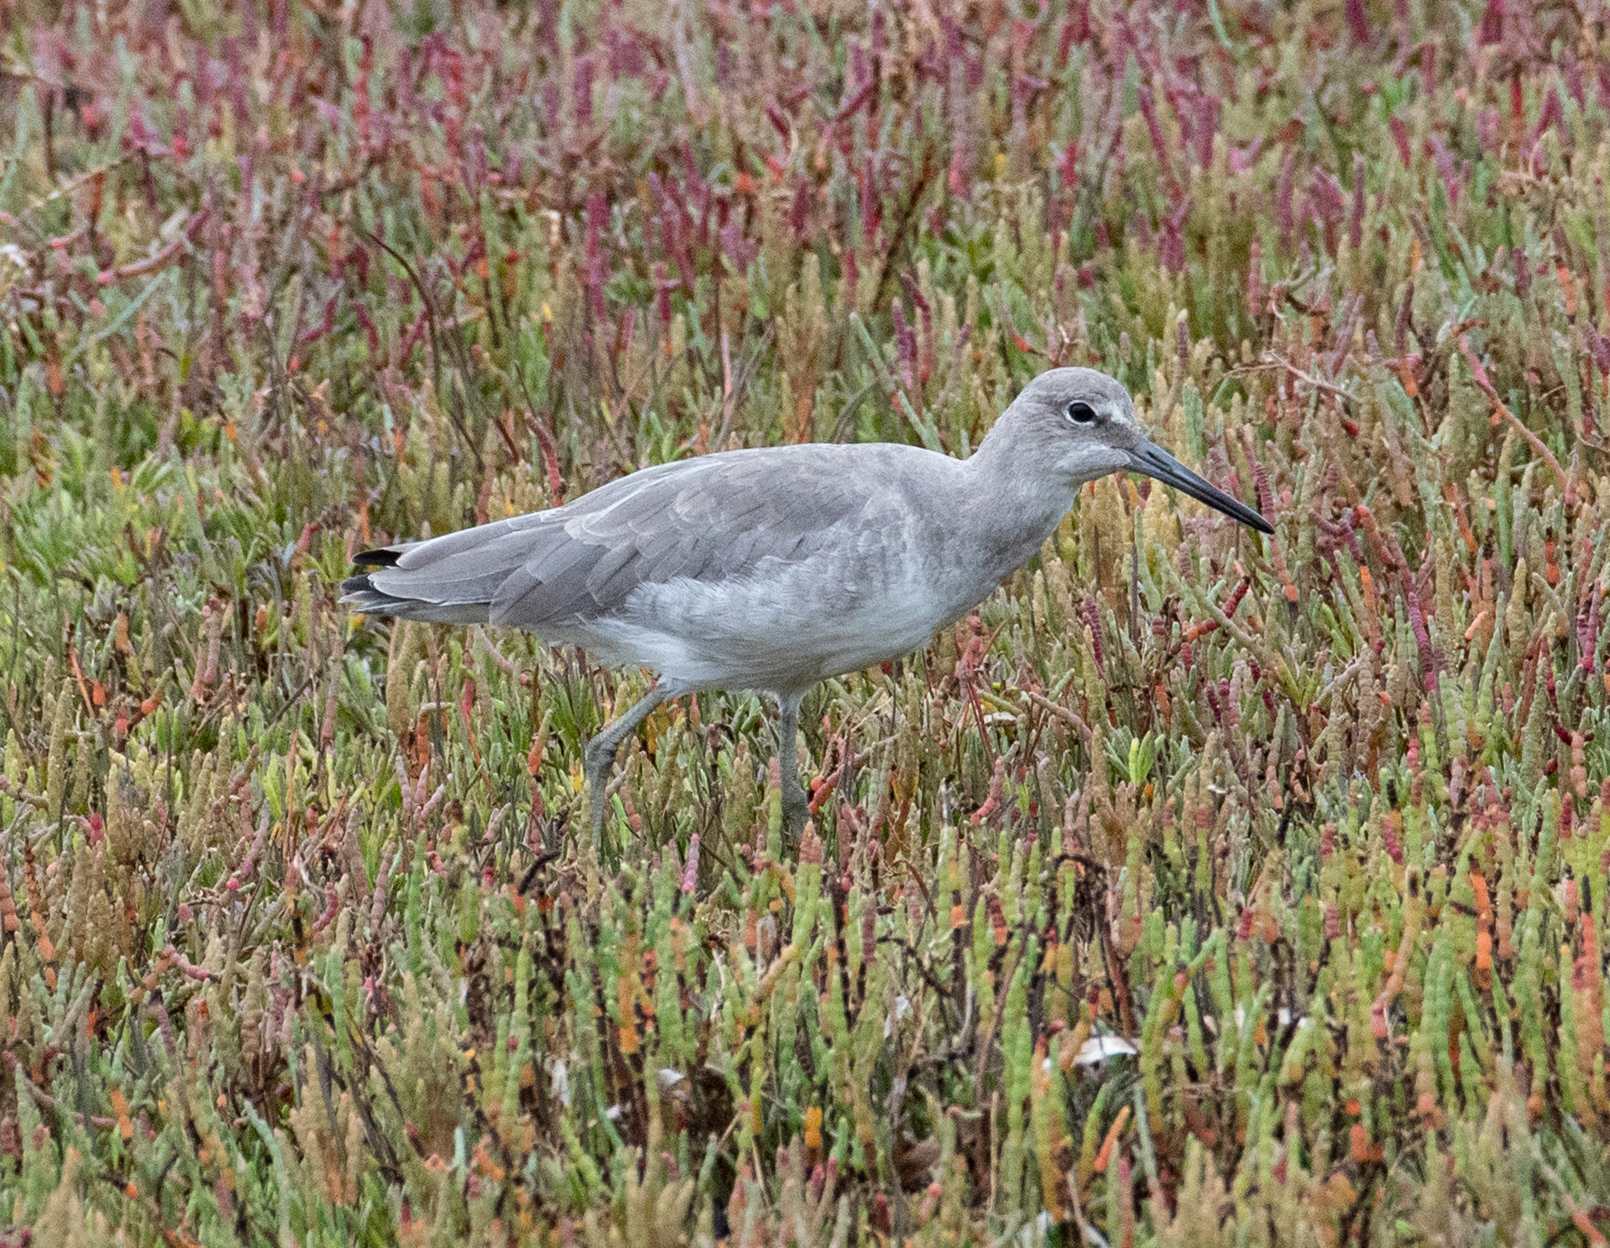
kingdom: Animalia
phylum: Chordata
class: Aves
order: Charadriiformes
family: Scolopacidae
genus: Tringa
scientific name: Tringa semipalmata
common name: Willet
